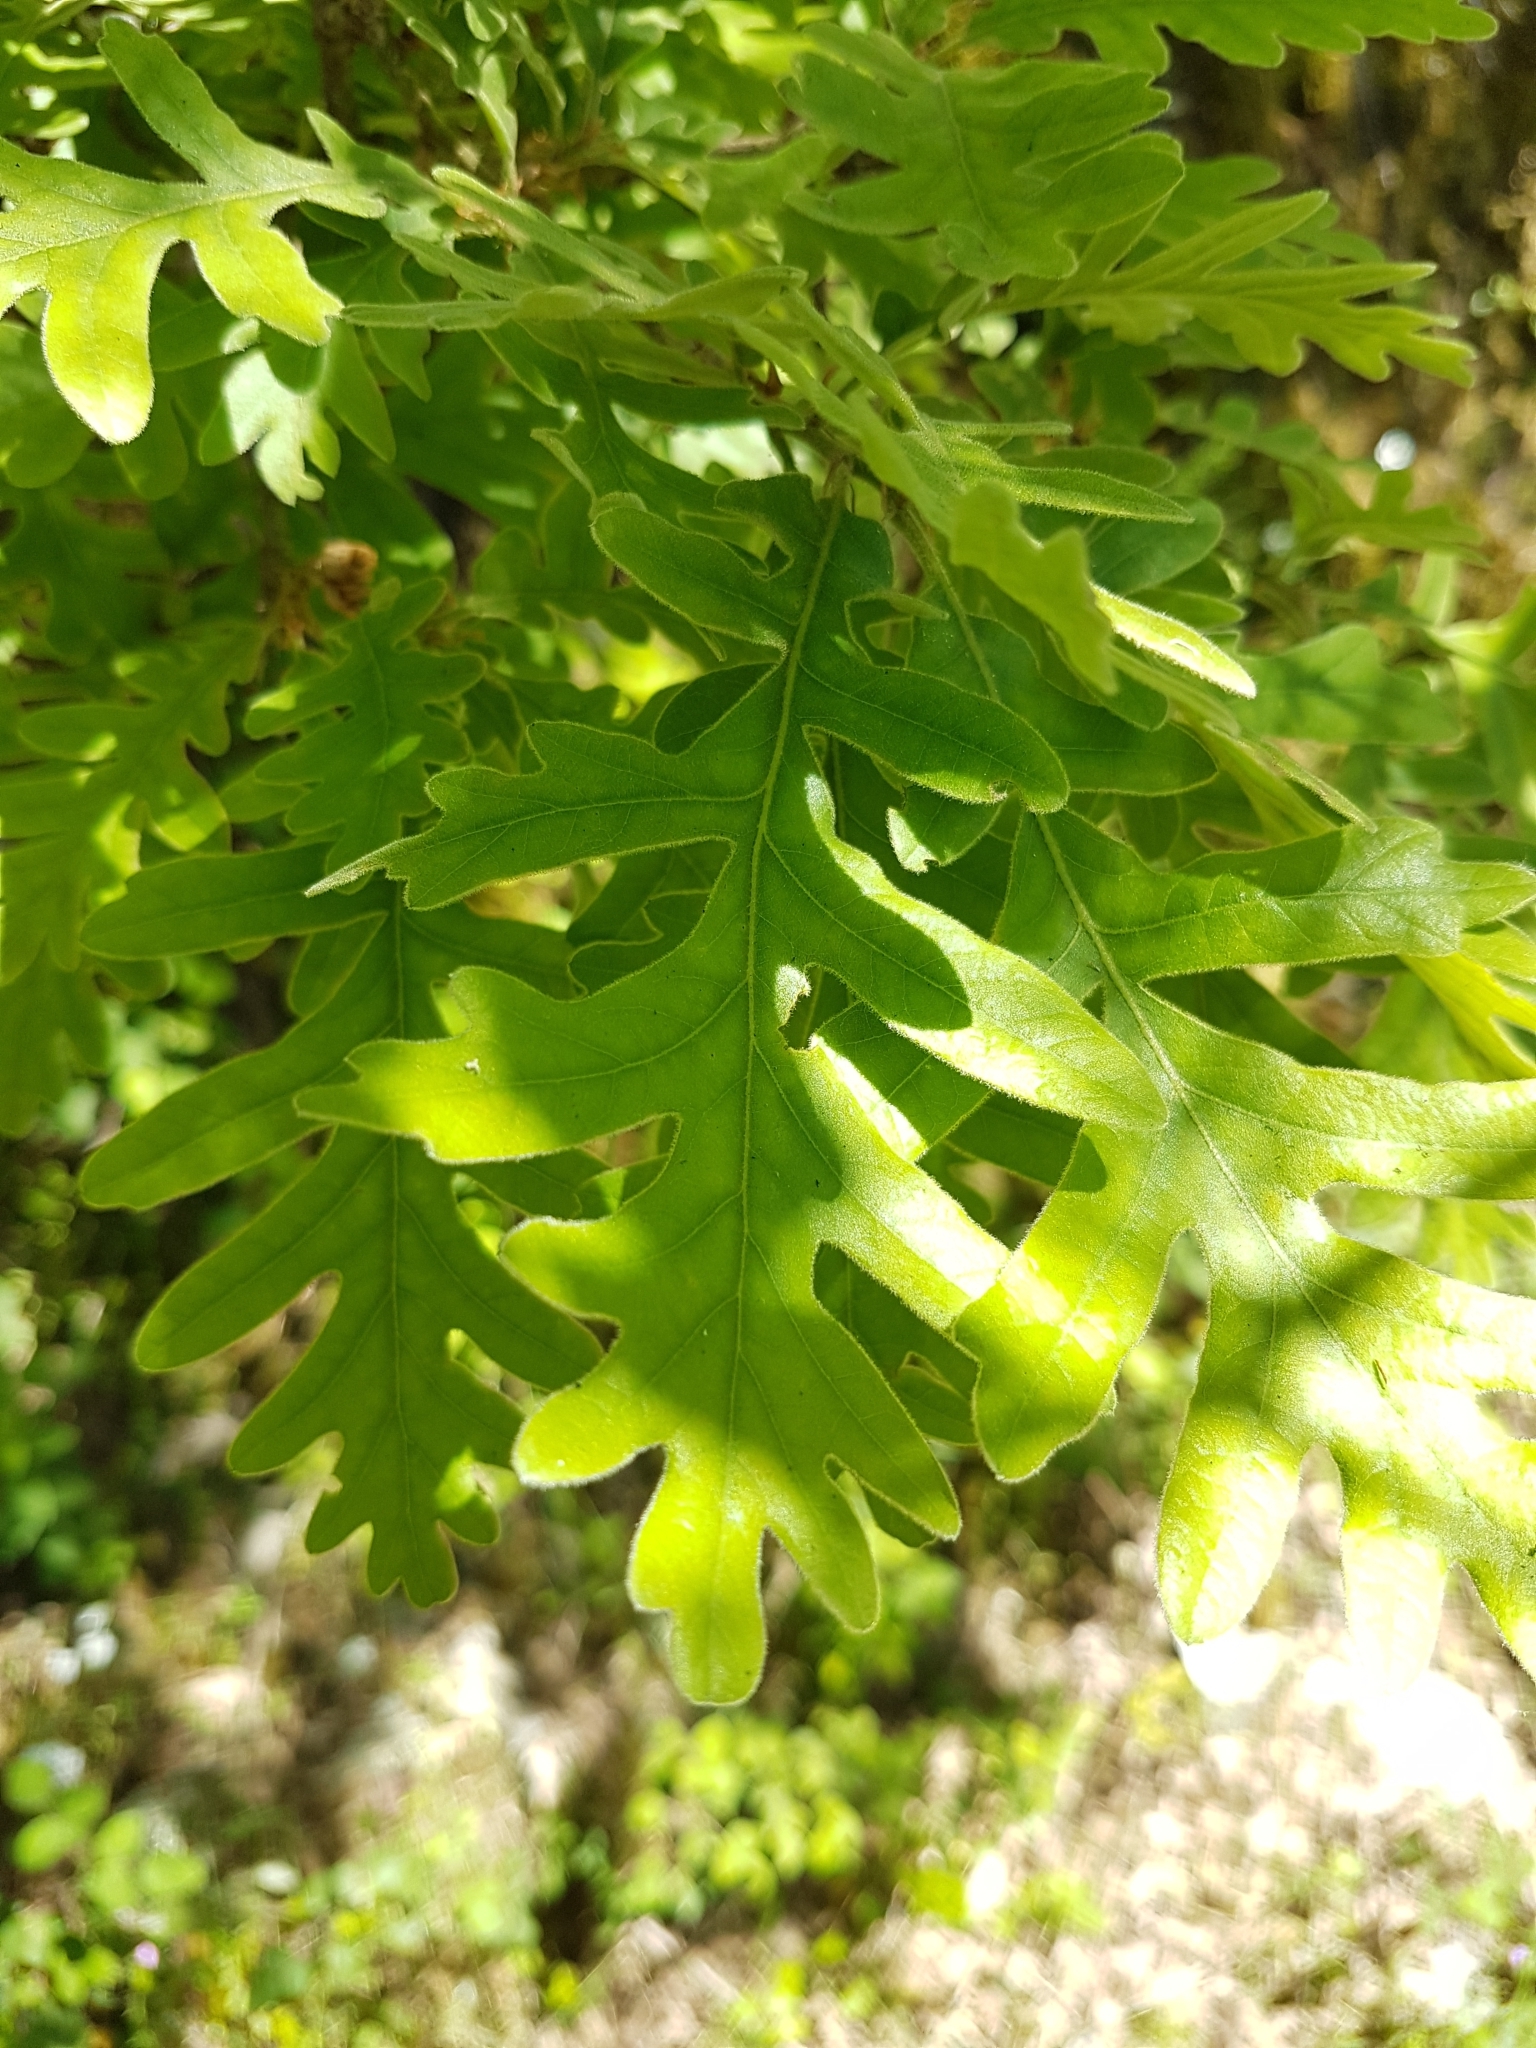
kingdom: Plantae
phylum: Tracheophyta
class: Magnoliopsida
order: Fagales
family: Fagaceae
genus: Quercus
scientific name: Quercus pyrenaica
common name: Pyrenean oak
